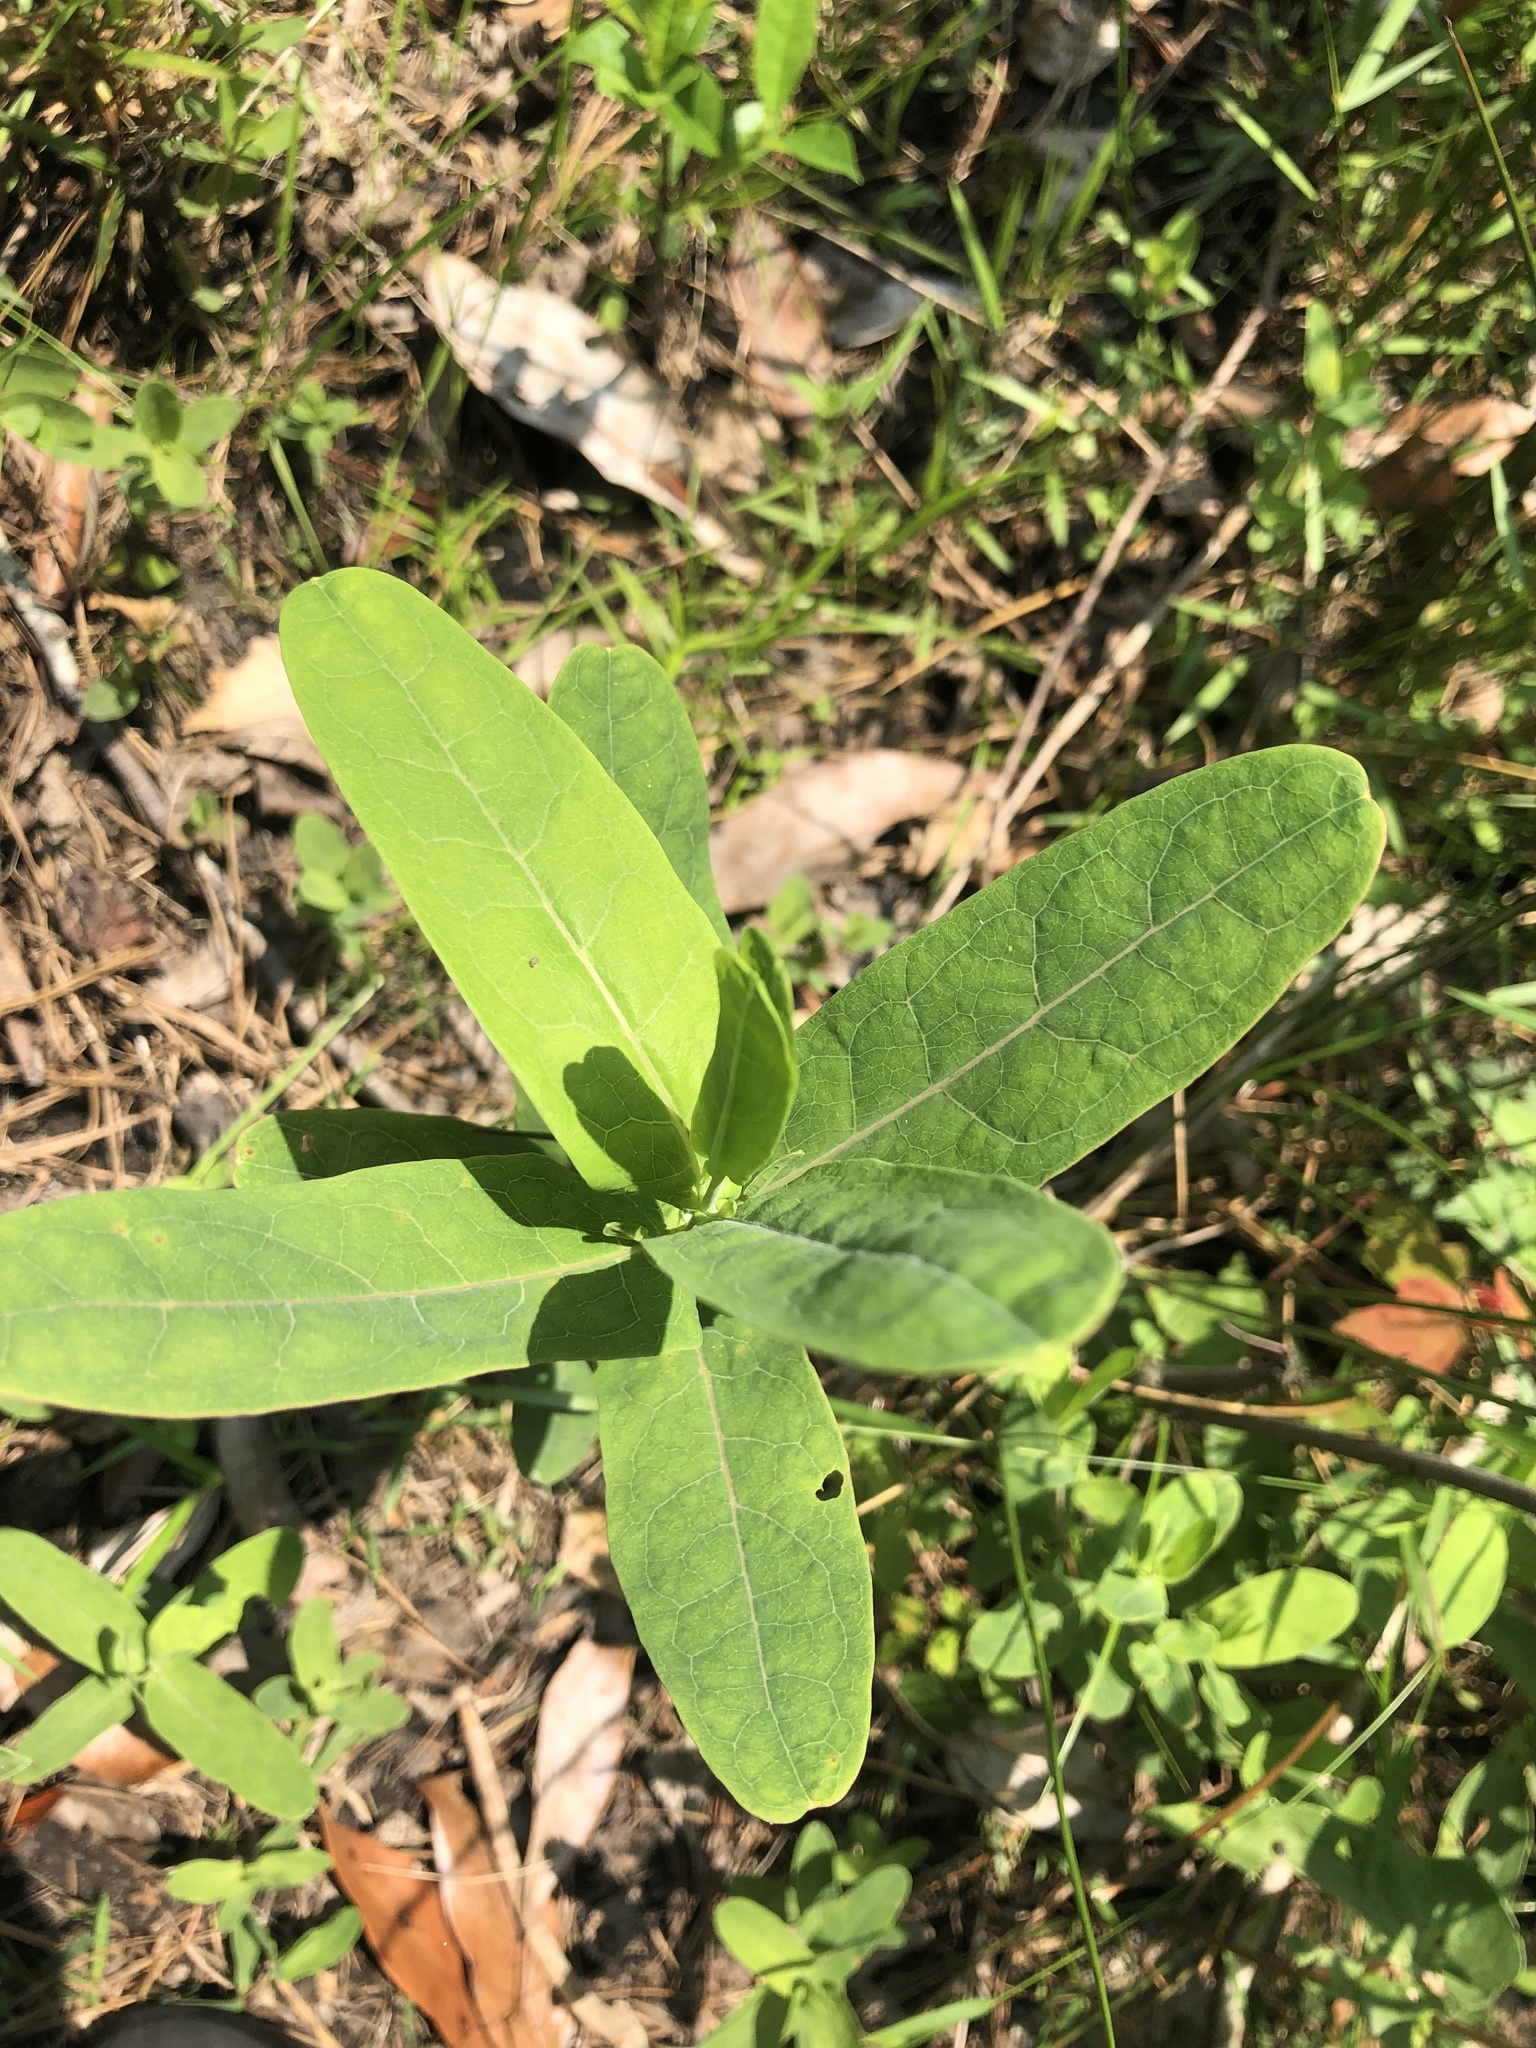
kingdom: Plantae
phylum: Tracheophyta
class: Magnoliopsida
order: Malpighiales
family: Hypericaceae
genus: Triadenum
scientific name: Triadenum virginicum
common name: Marsh st. john's-wort
